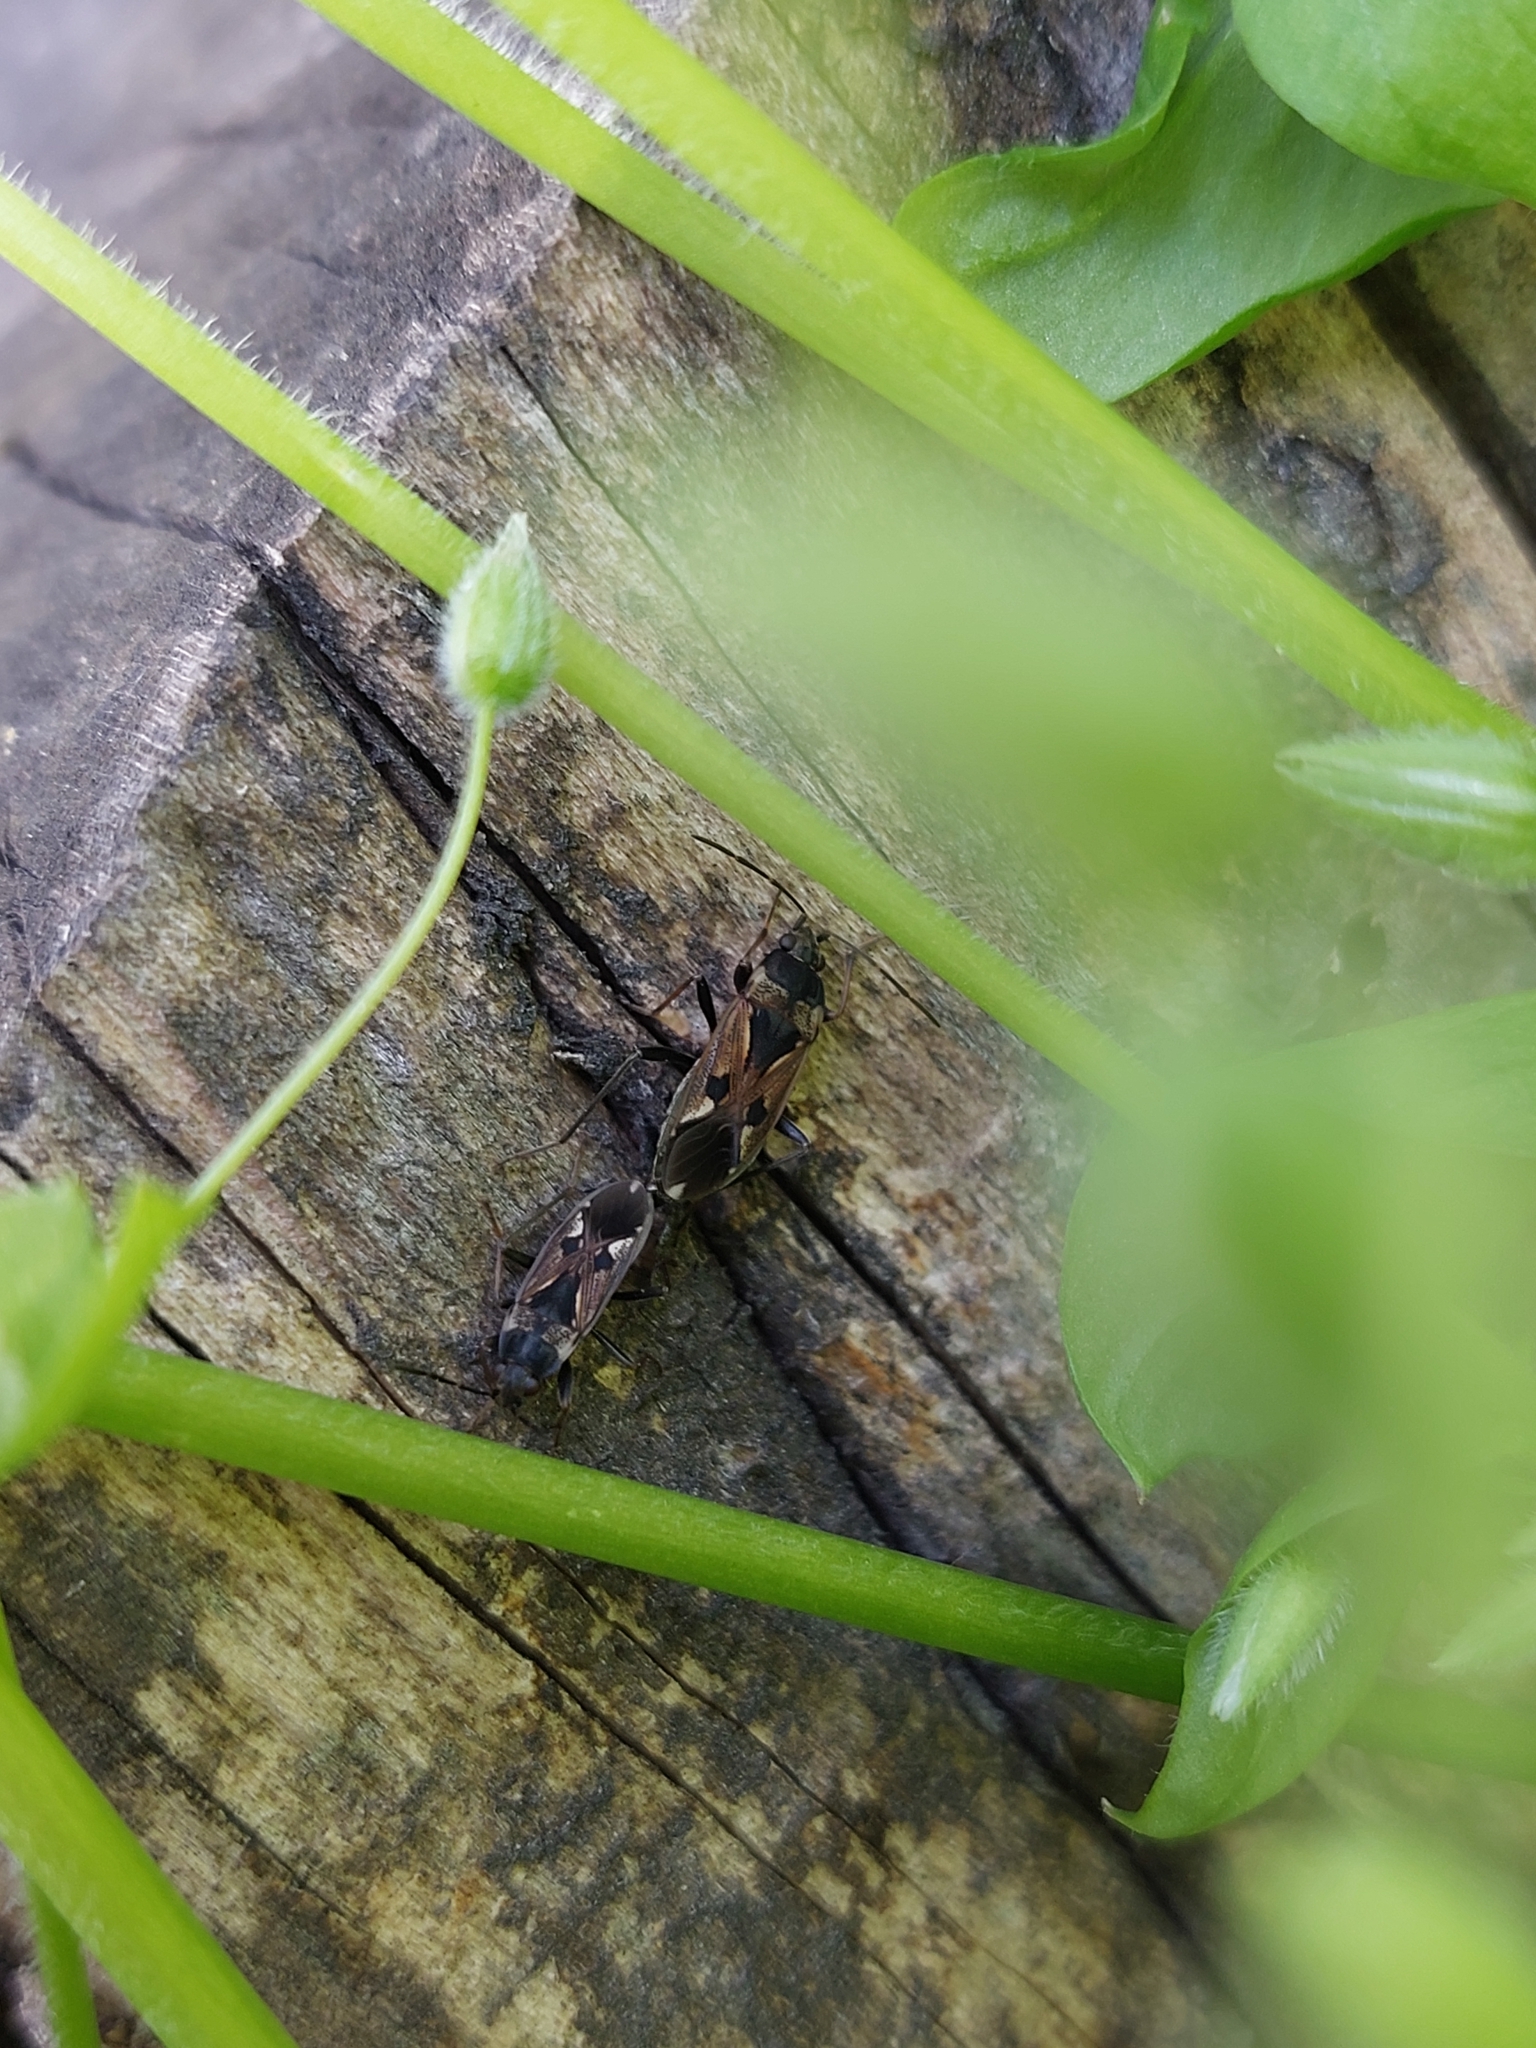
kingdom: Animalia
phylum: Arthropoda
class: Insecta
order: Hemiptera
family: Rhyparochromidae
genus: Rhyparochromus
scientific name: Rhyparochromus vulgaris
